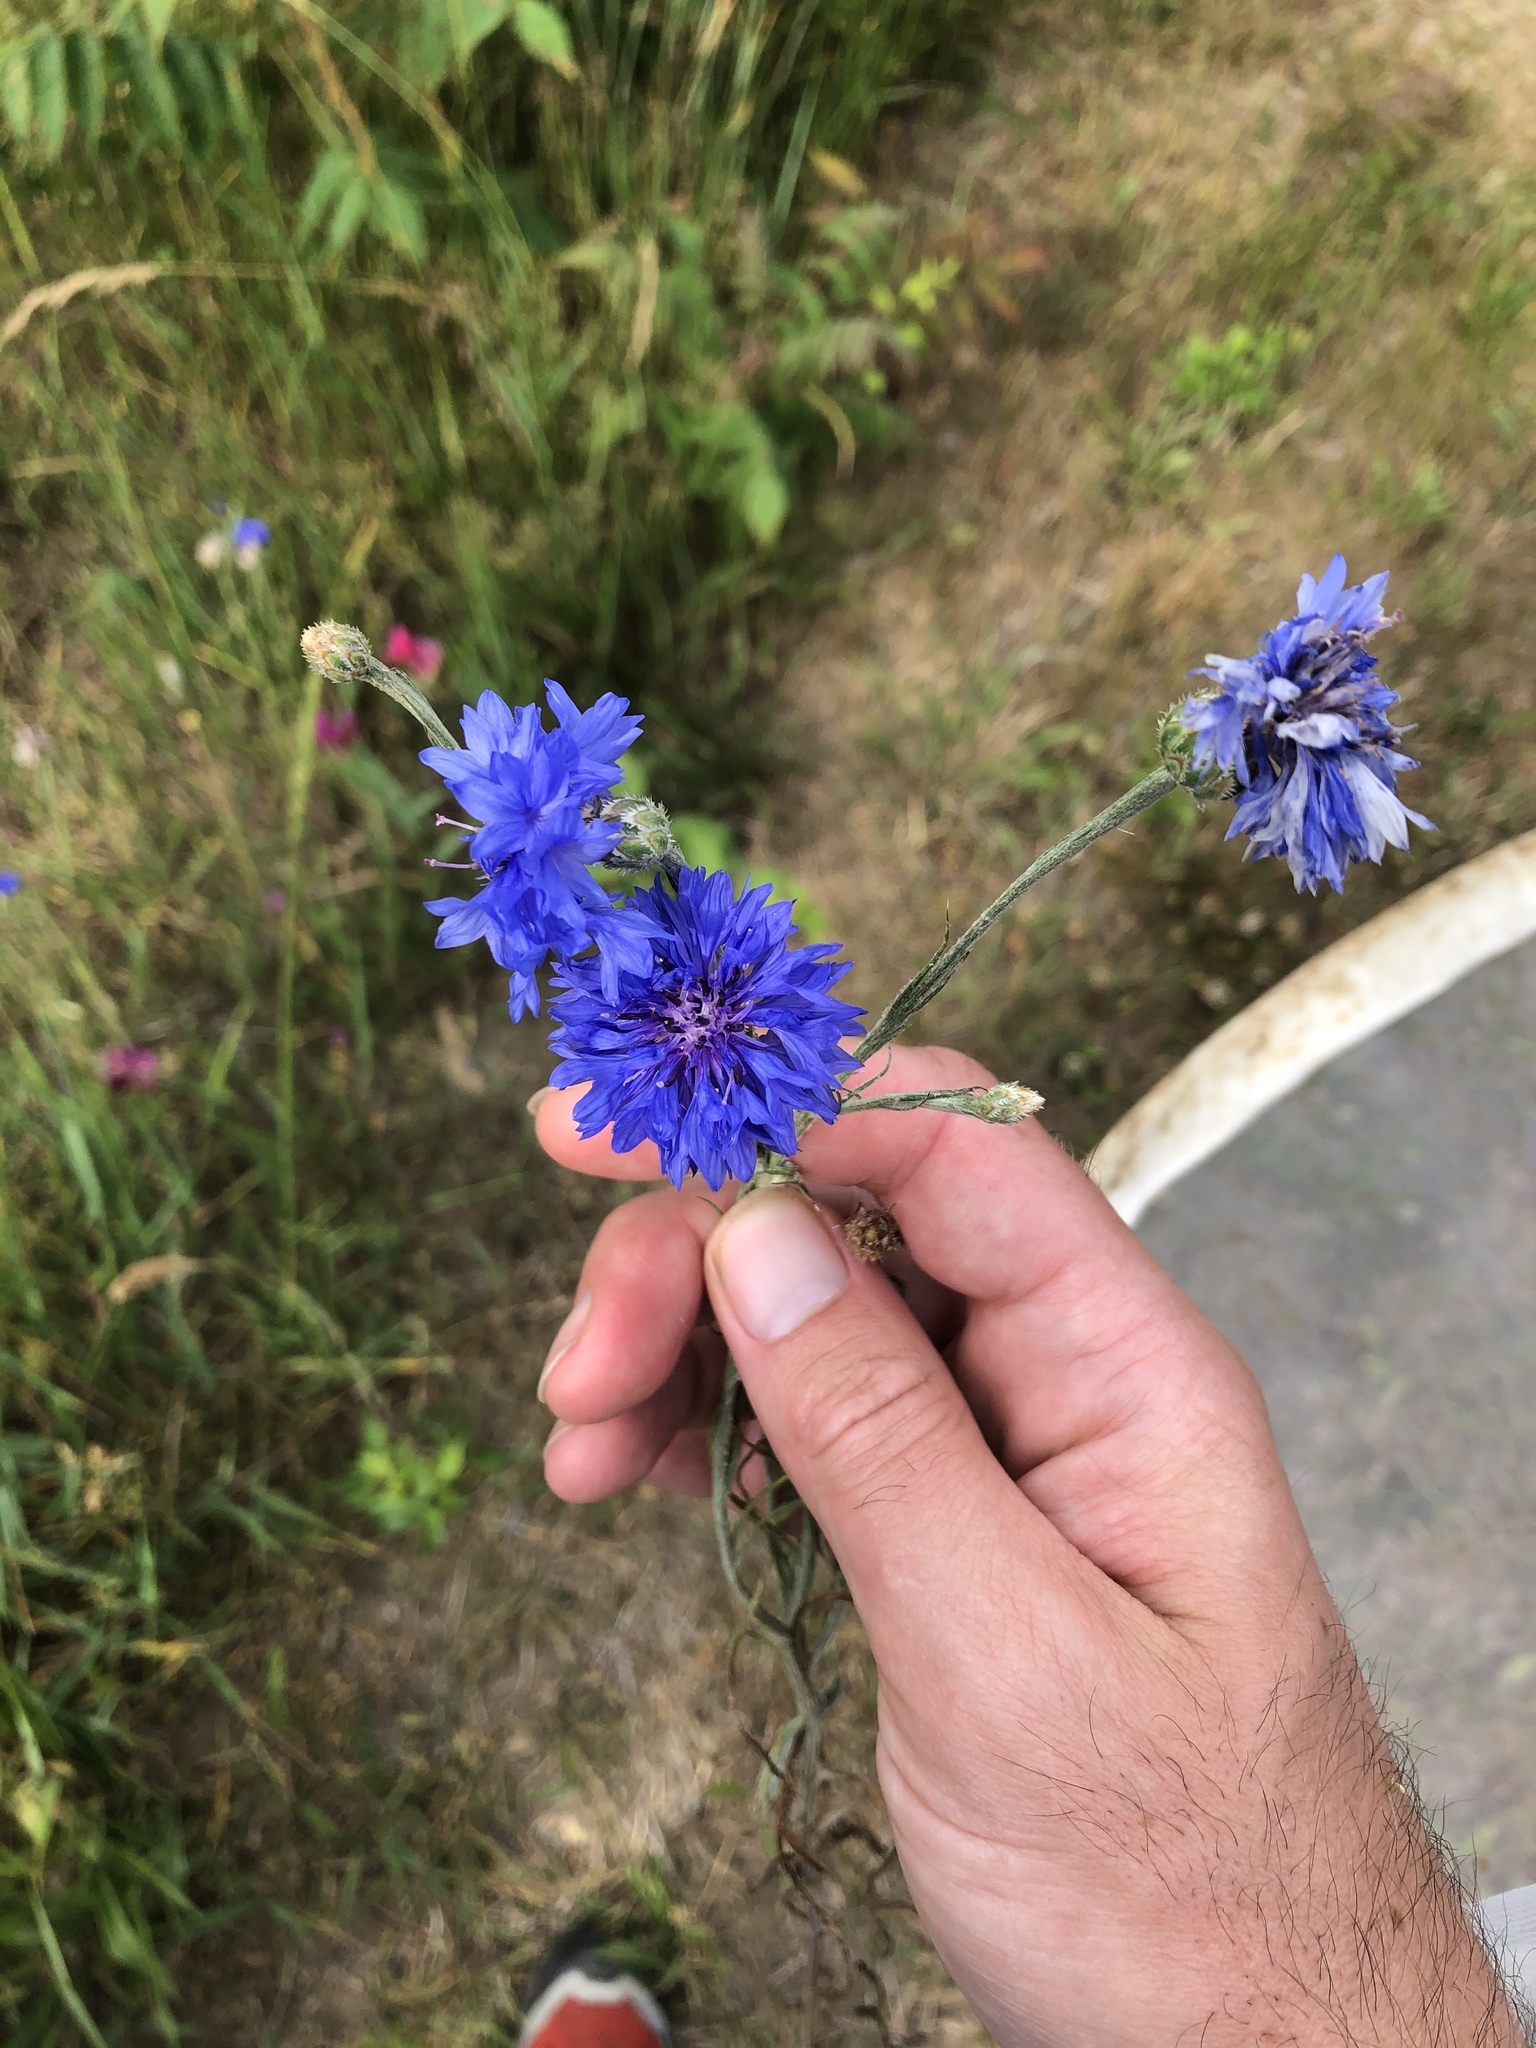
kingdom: Plantae
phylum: Tracheophyta
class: Magnoliopsida
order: Asterales
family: Asteraceae
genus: Centaurea
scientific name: Centaurea cyanus
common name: Cornflower
